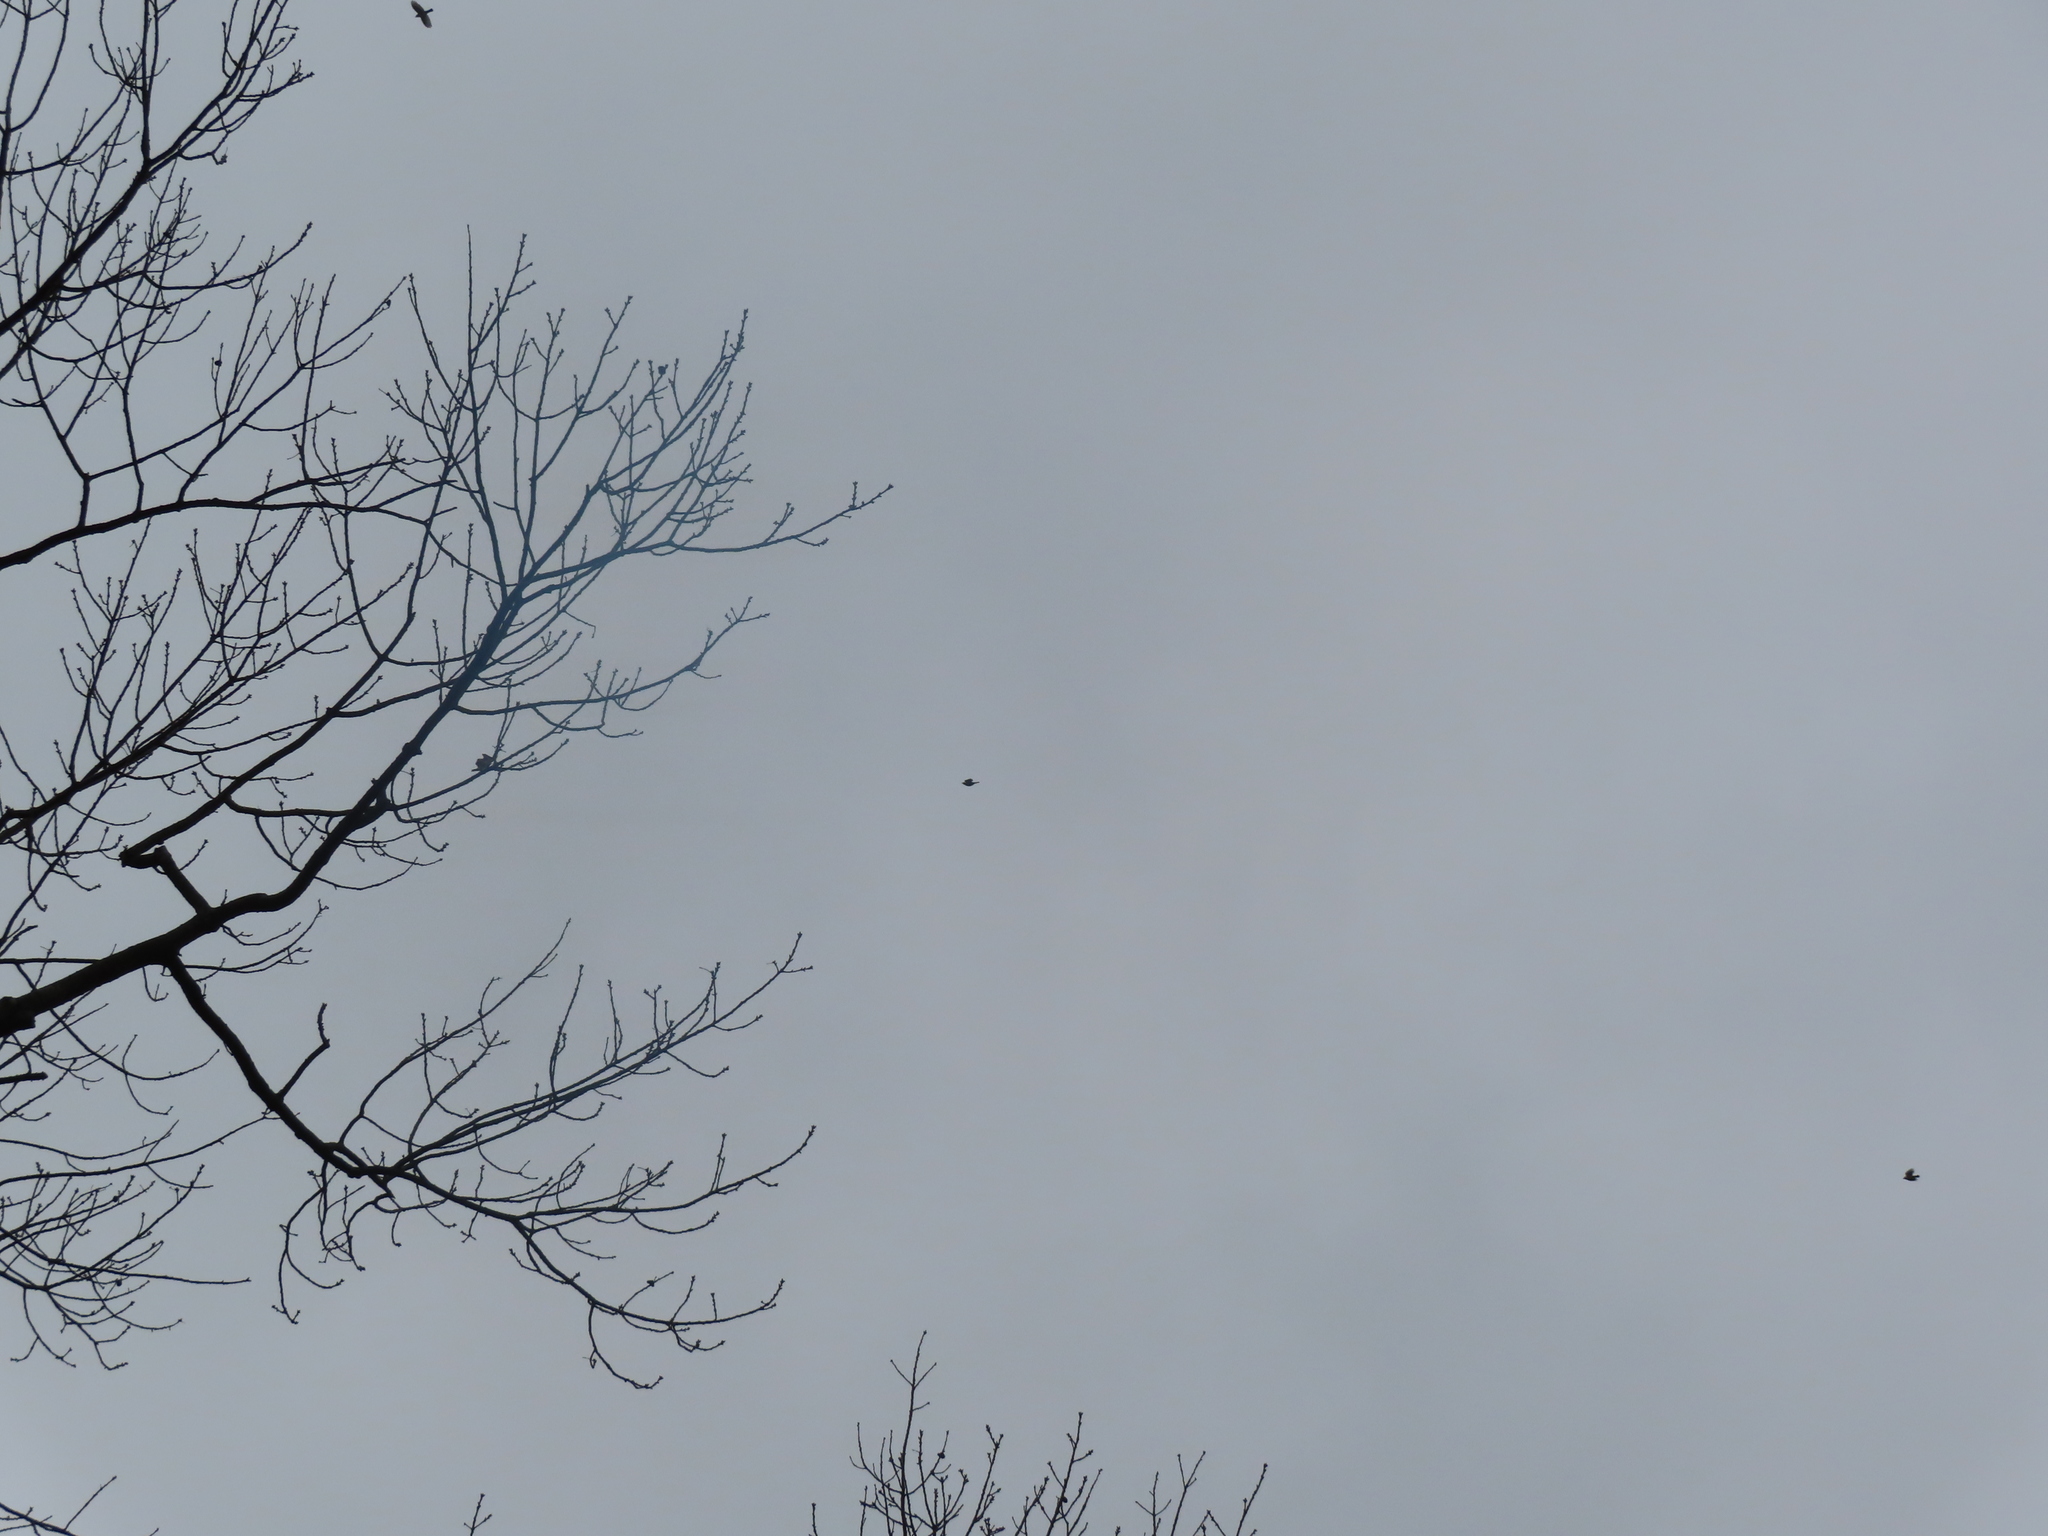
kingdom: Animalia
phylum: Chordata
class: Aves
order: Passeriformes
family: Turdidae
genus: Turdus
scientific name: Turdus migratorius
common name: American robin
